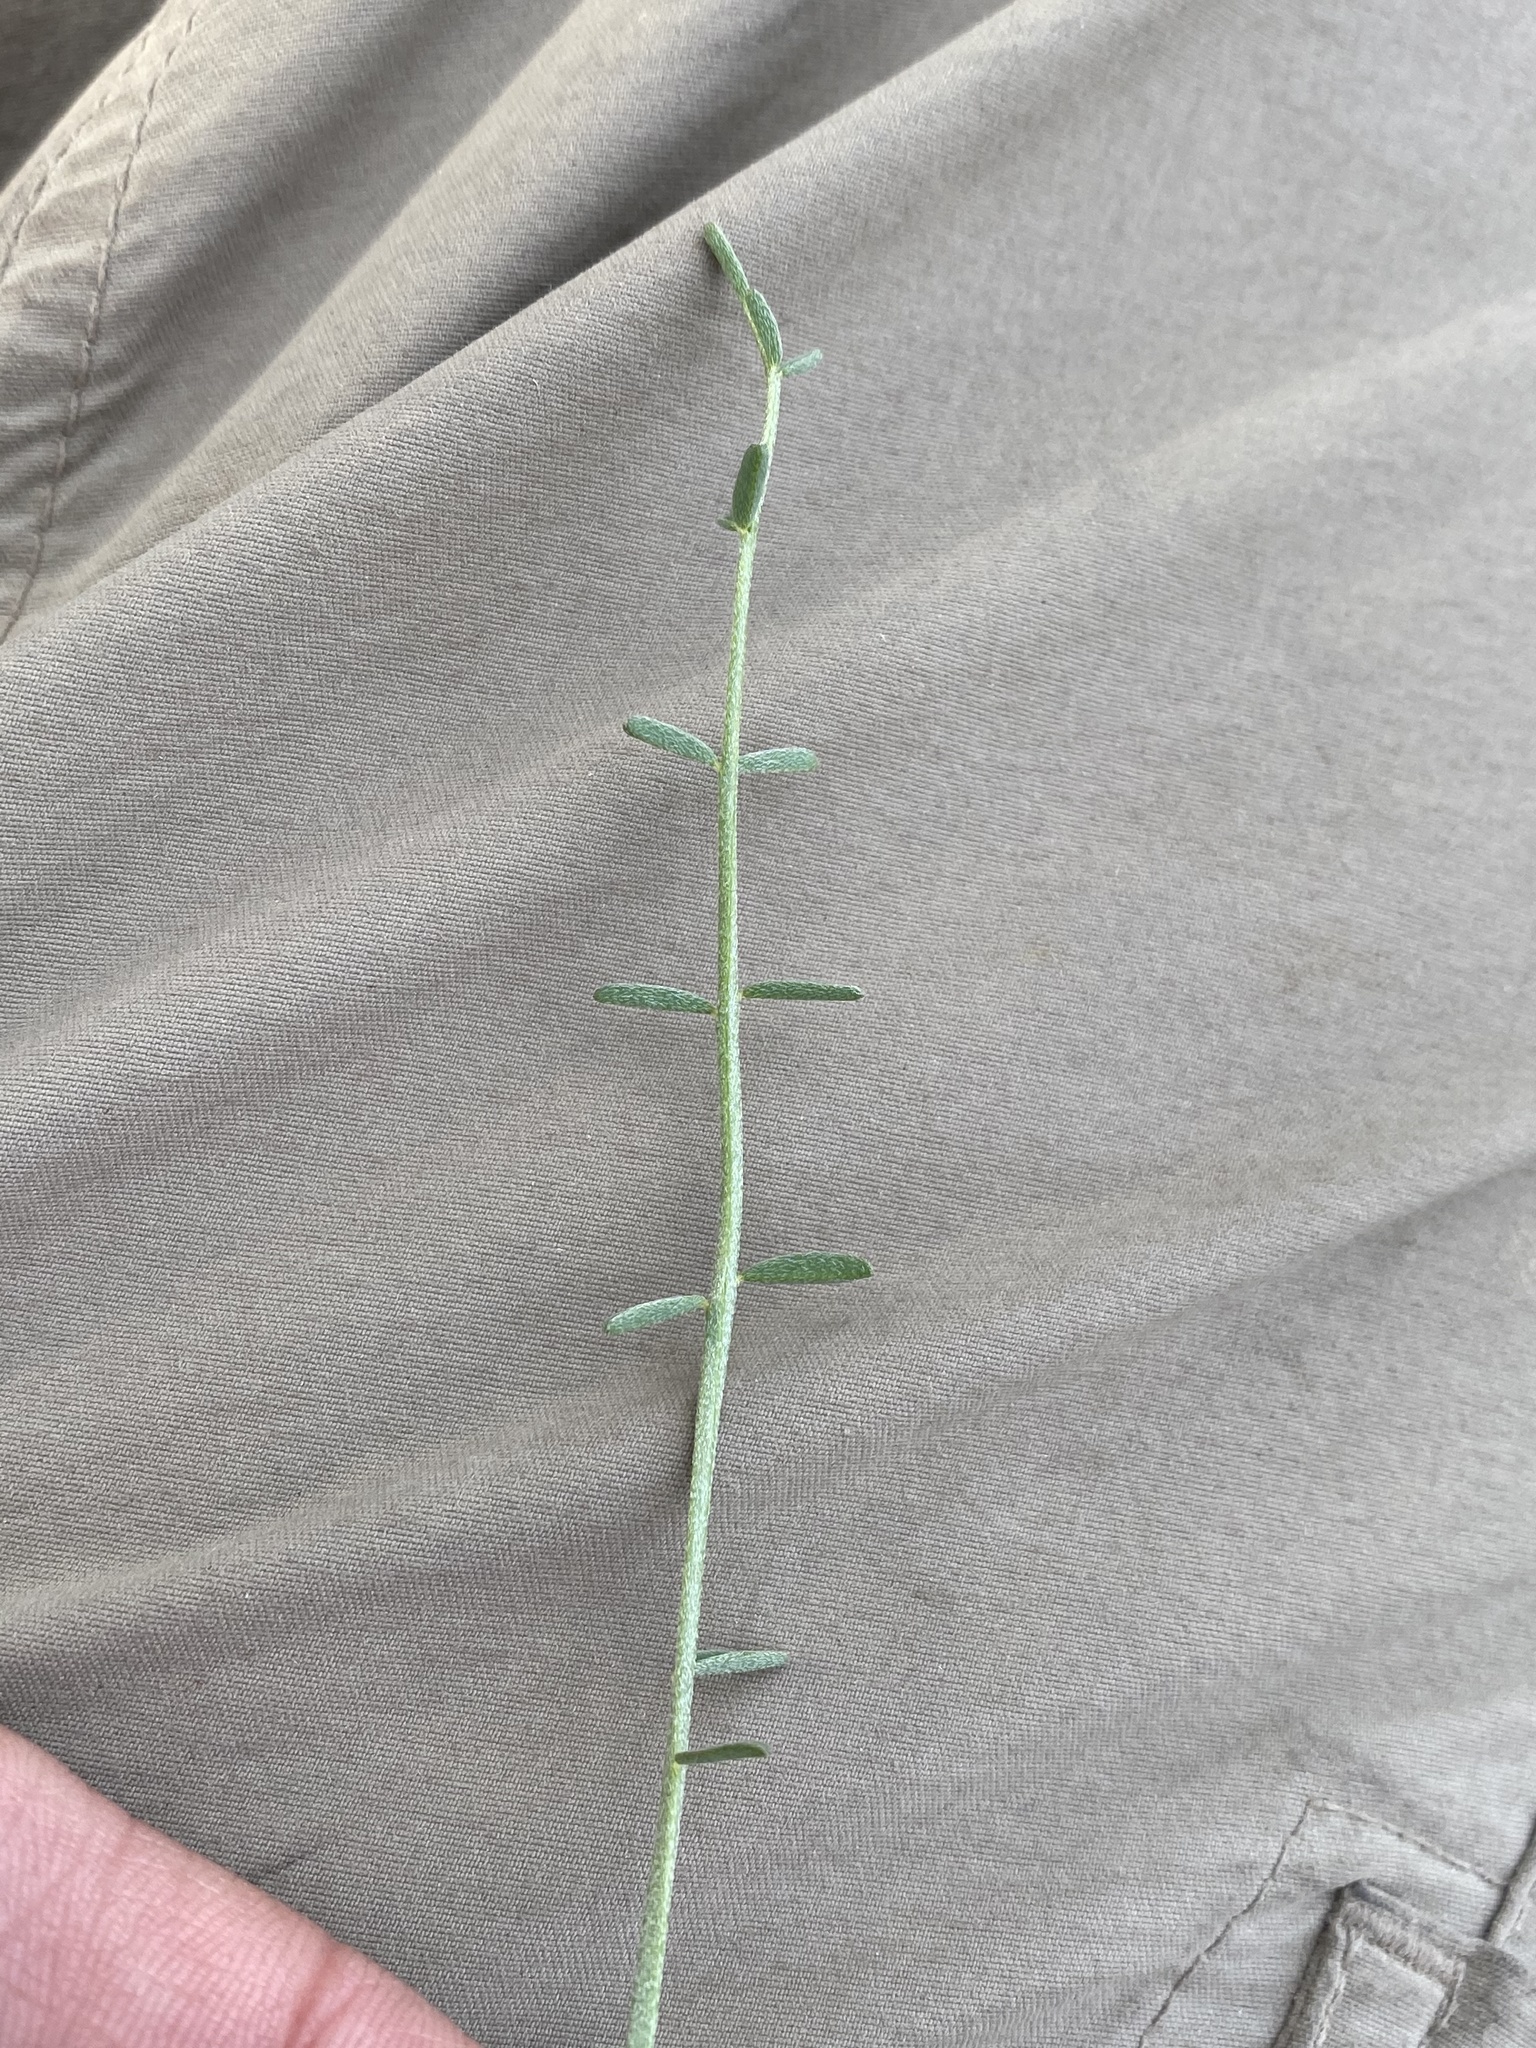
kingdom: Plantae
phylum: Tracheophyta
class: Magnoliopsida
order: Fabales
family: Fabaceae
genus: Astragalus
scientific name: Astragalus conjunctus
